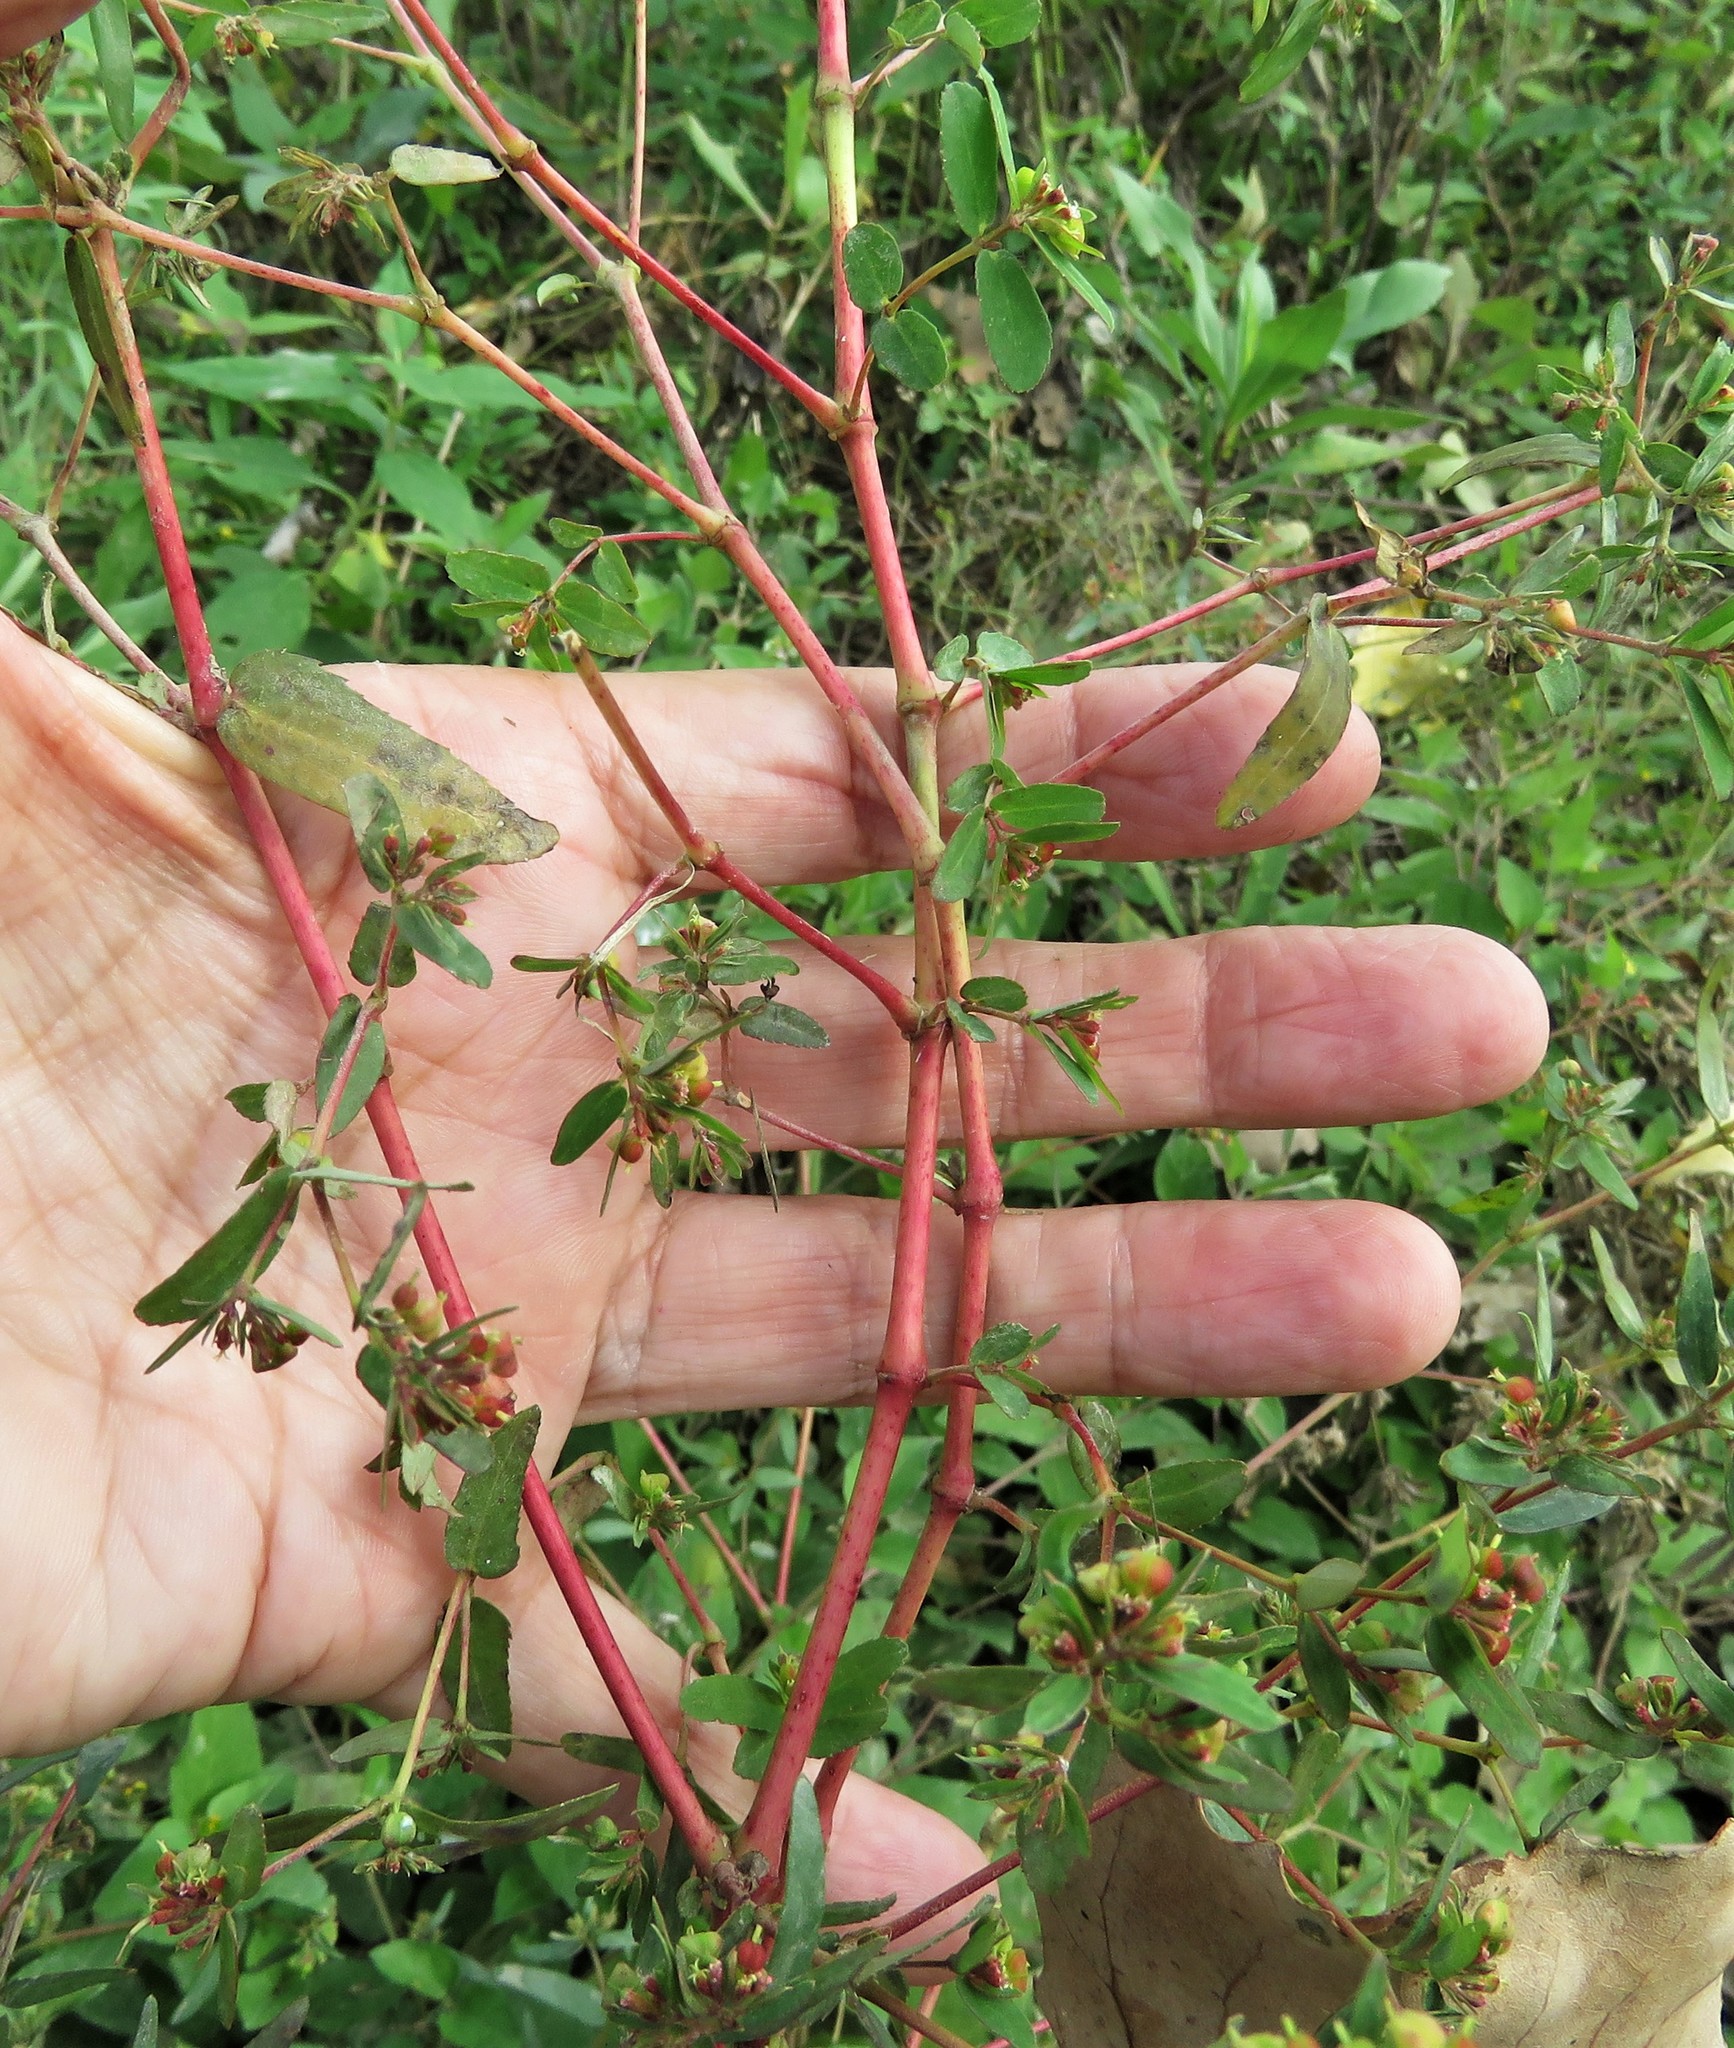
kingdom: Plantae
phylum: Tracheophyta
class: Magnoliopsida
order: Malpighiales
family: Euphorbiaceae
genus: Euphorbia
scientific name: Euphorbia nutans
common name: Eyebane
